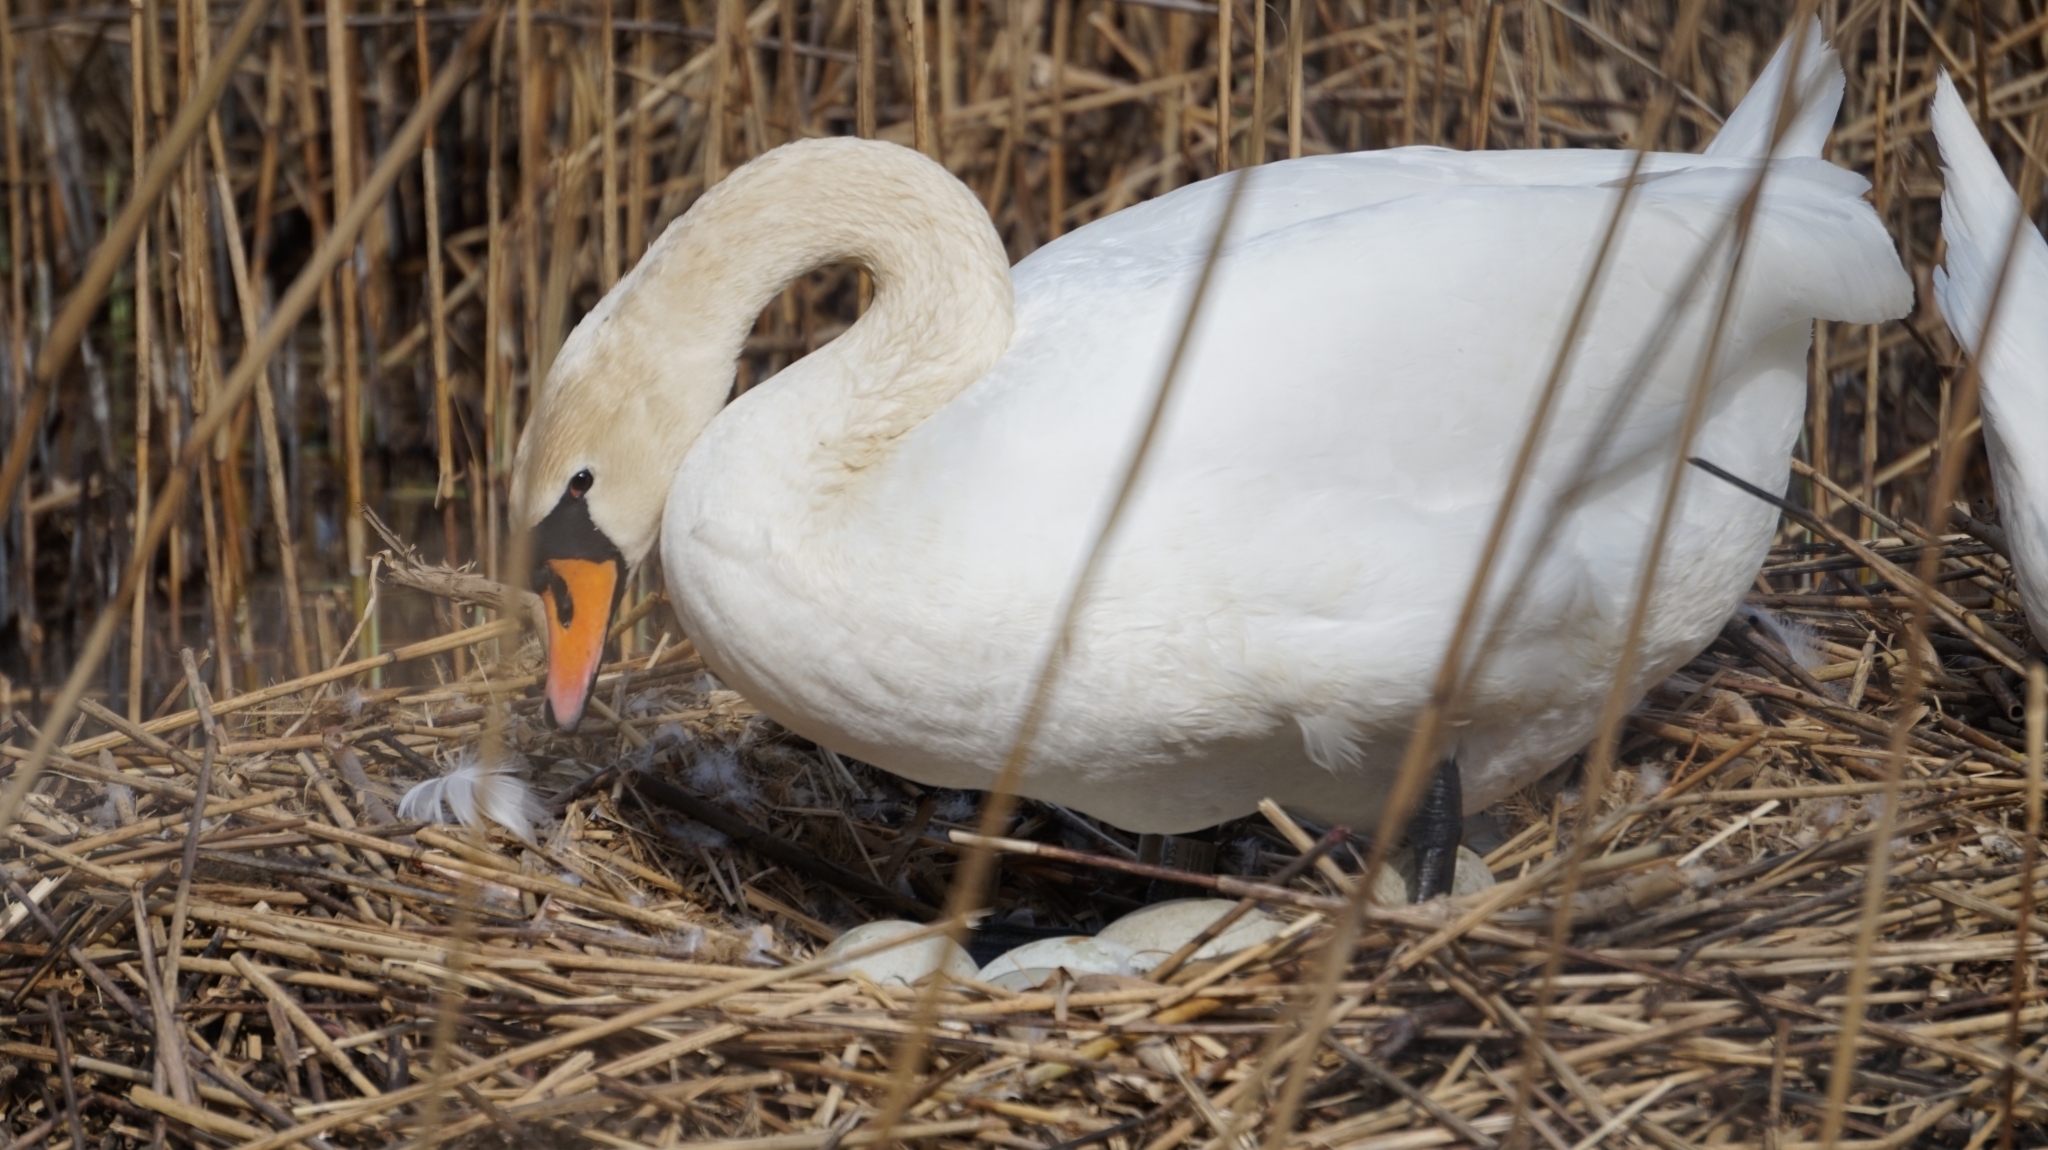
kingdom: Animalia
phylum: Chordata
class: Aves
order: Anseriformes
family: Anatidae
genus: Cygnus
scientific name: Cygnus olor
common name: Mute swan
